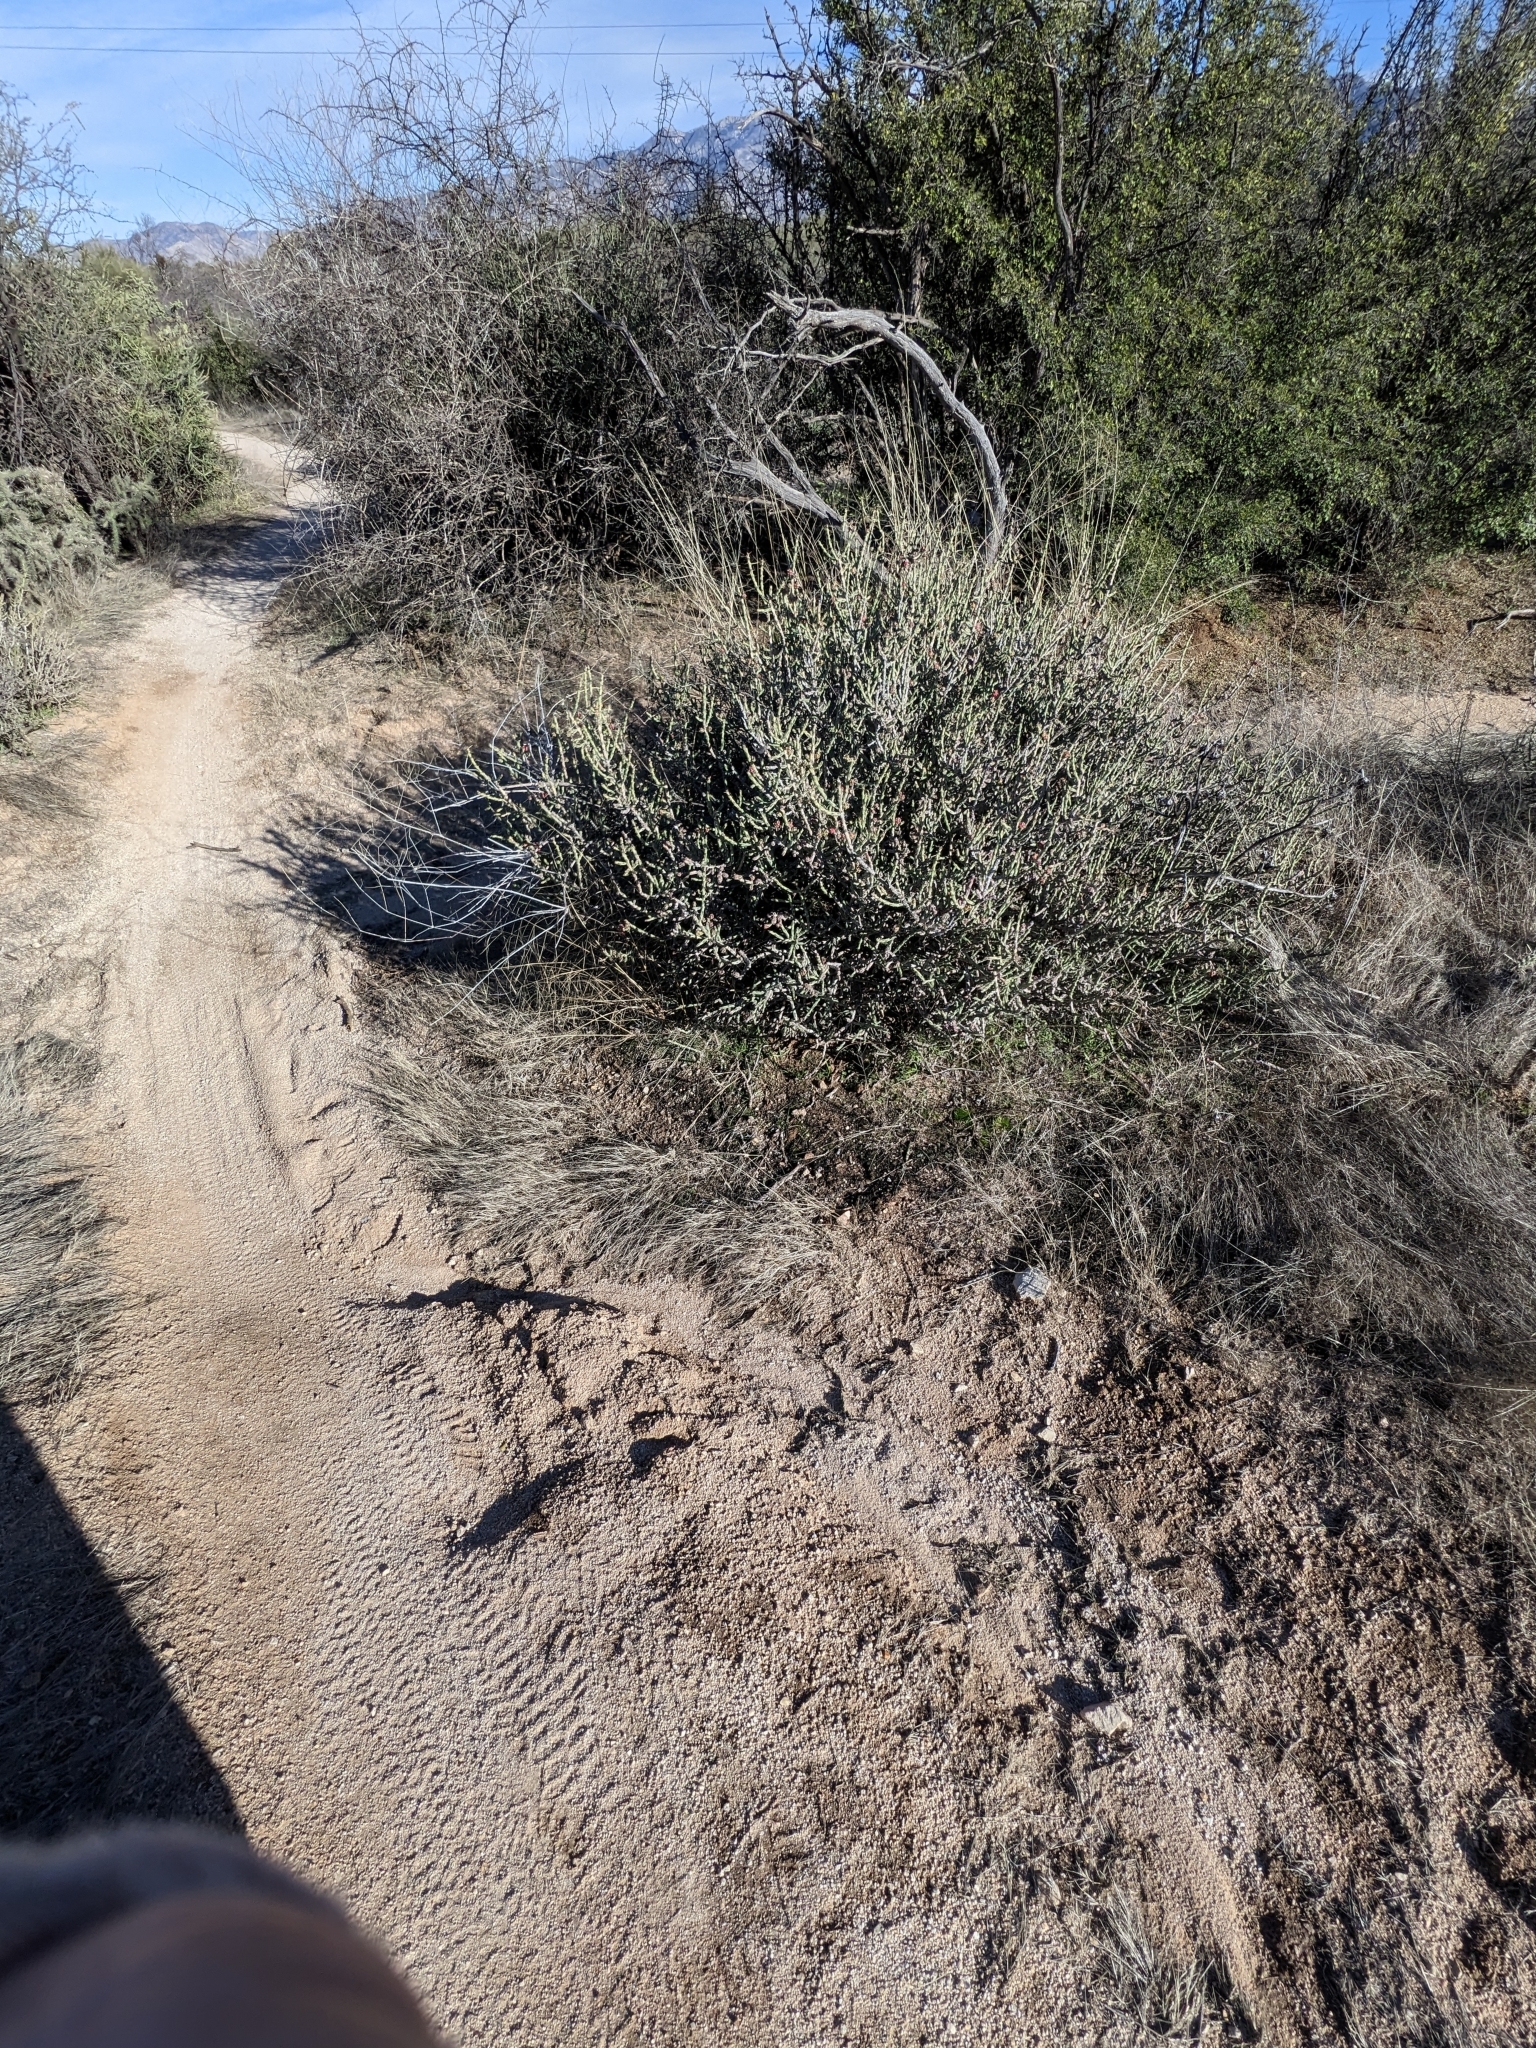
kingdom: Plantae
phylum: Tracheophyta
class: Magnoliopsida
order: Caryophyllales
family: Cactaceae
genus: Cylindropuntia
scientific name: Cylindropuntia leptocaulis
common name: Christmas cactus
